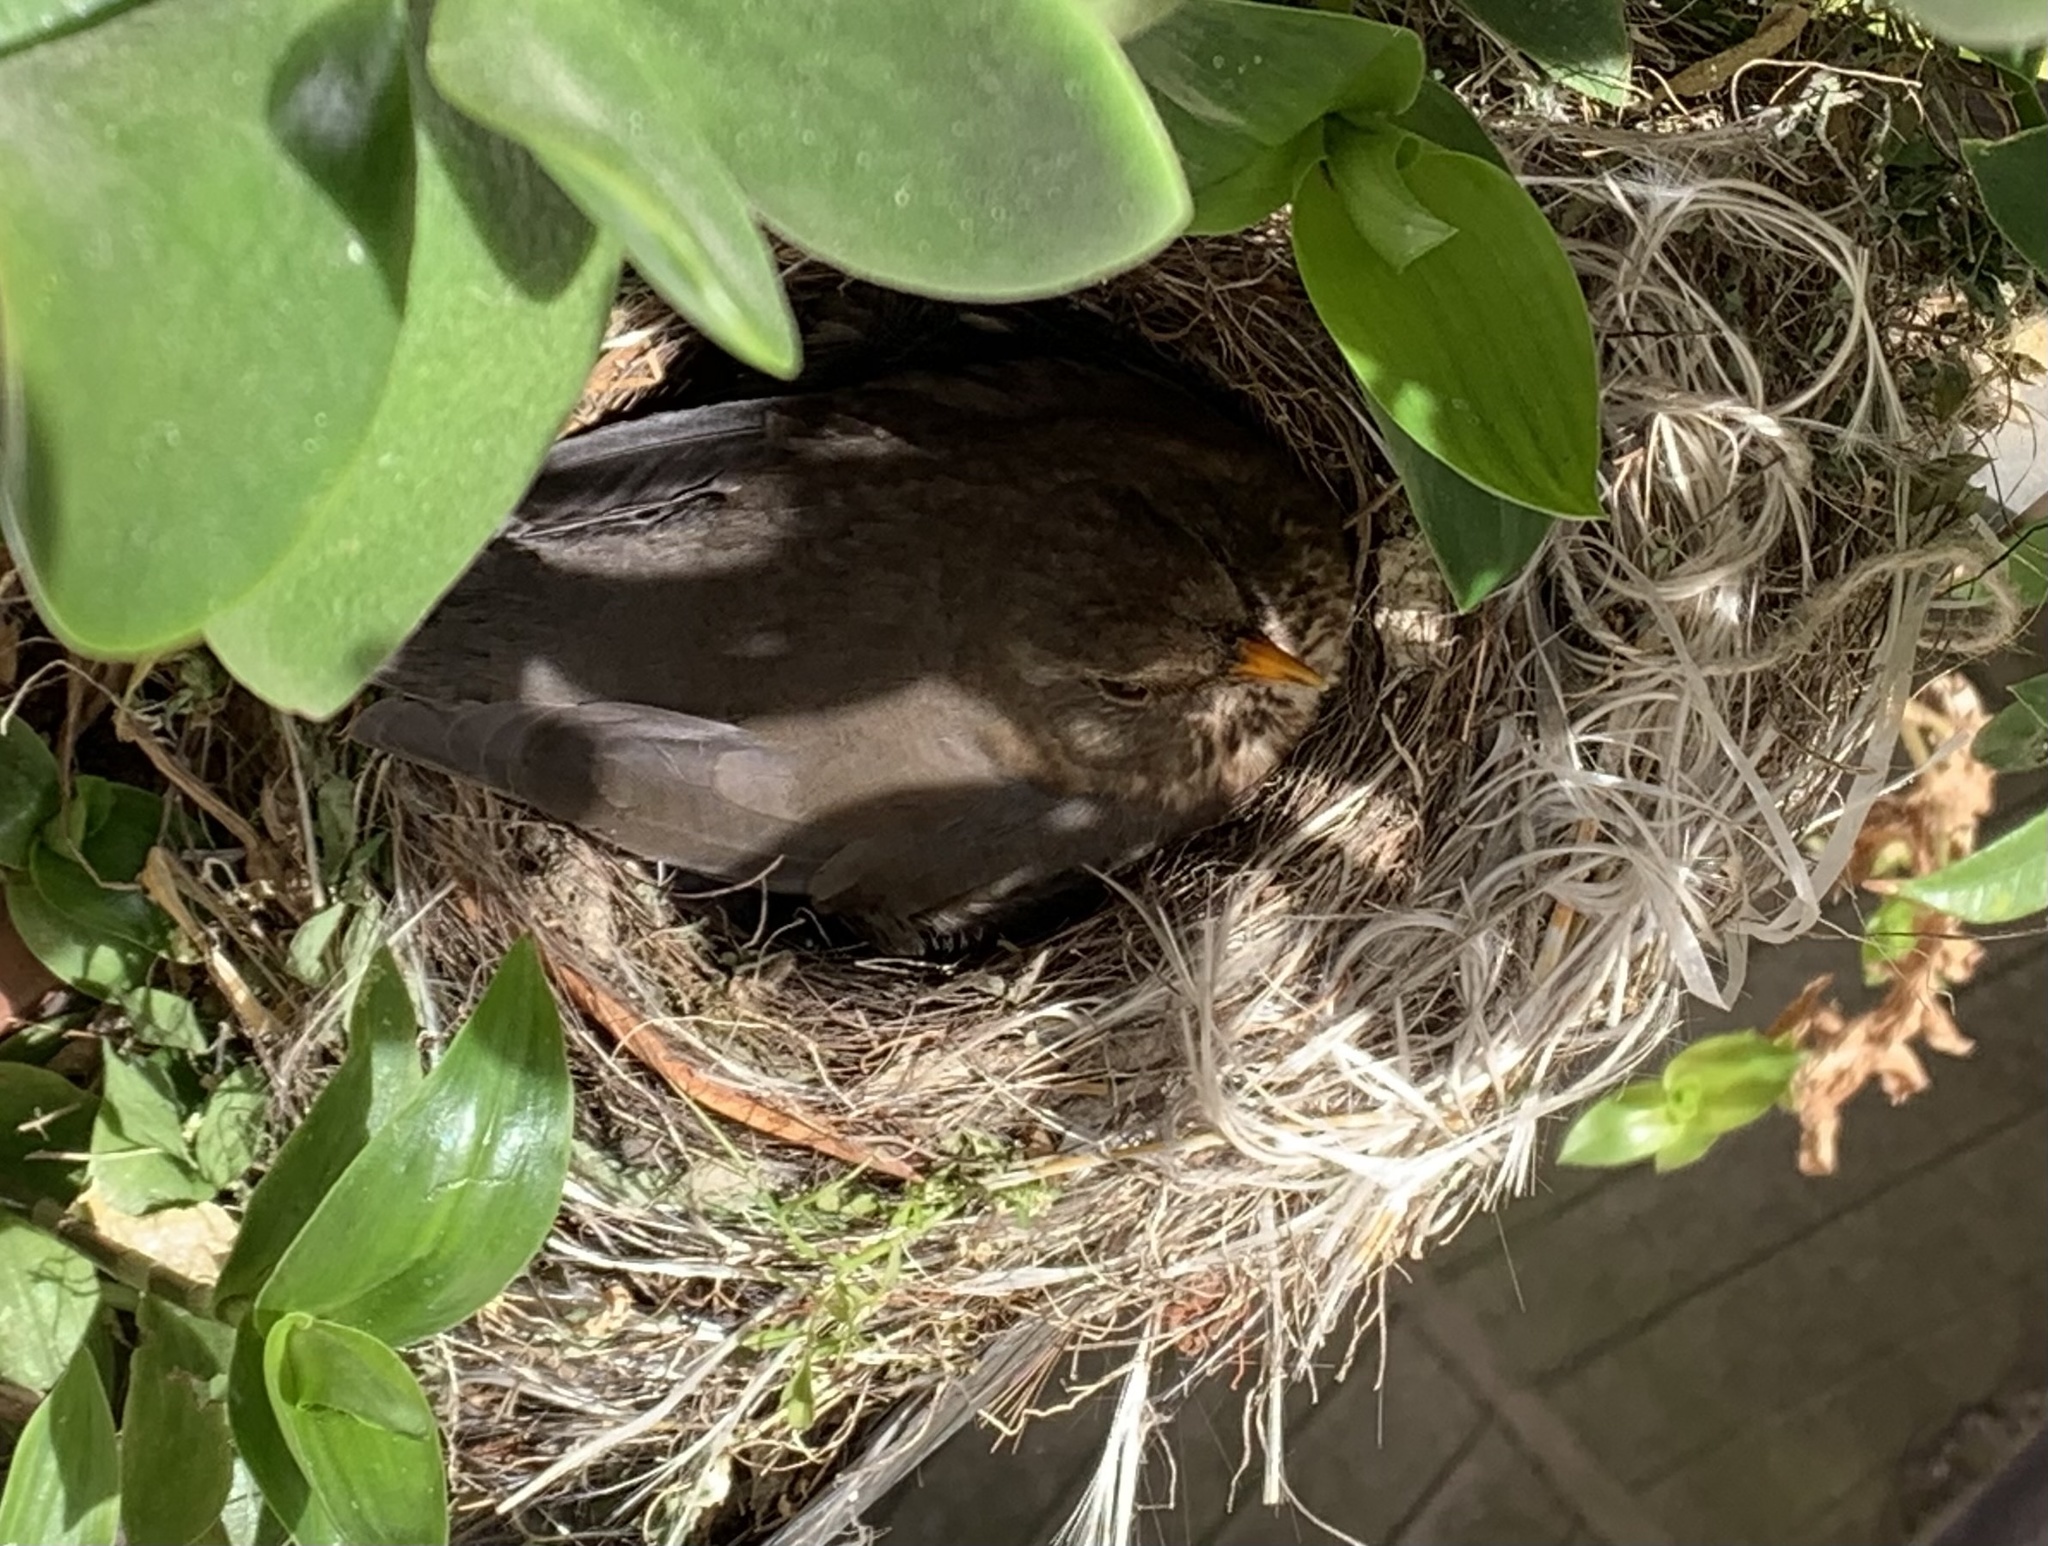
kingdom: Animalia
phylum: Chordata
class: Aves
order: Passeriformes
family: Turdidae
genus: Turdus
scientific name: Turdus merula
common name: Common blackbird
